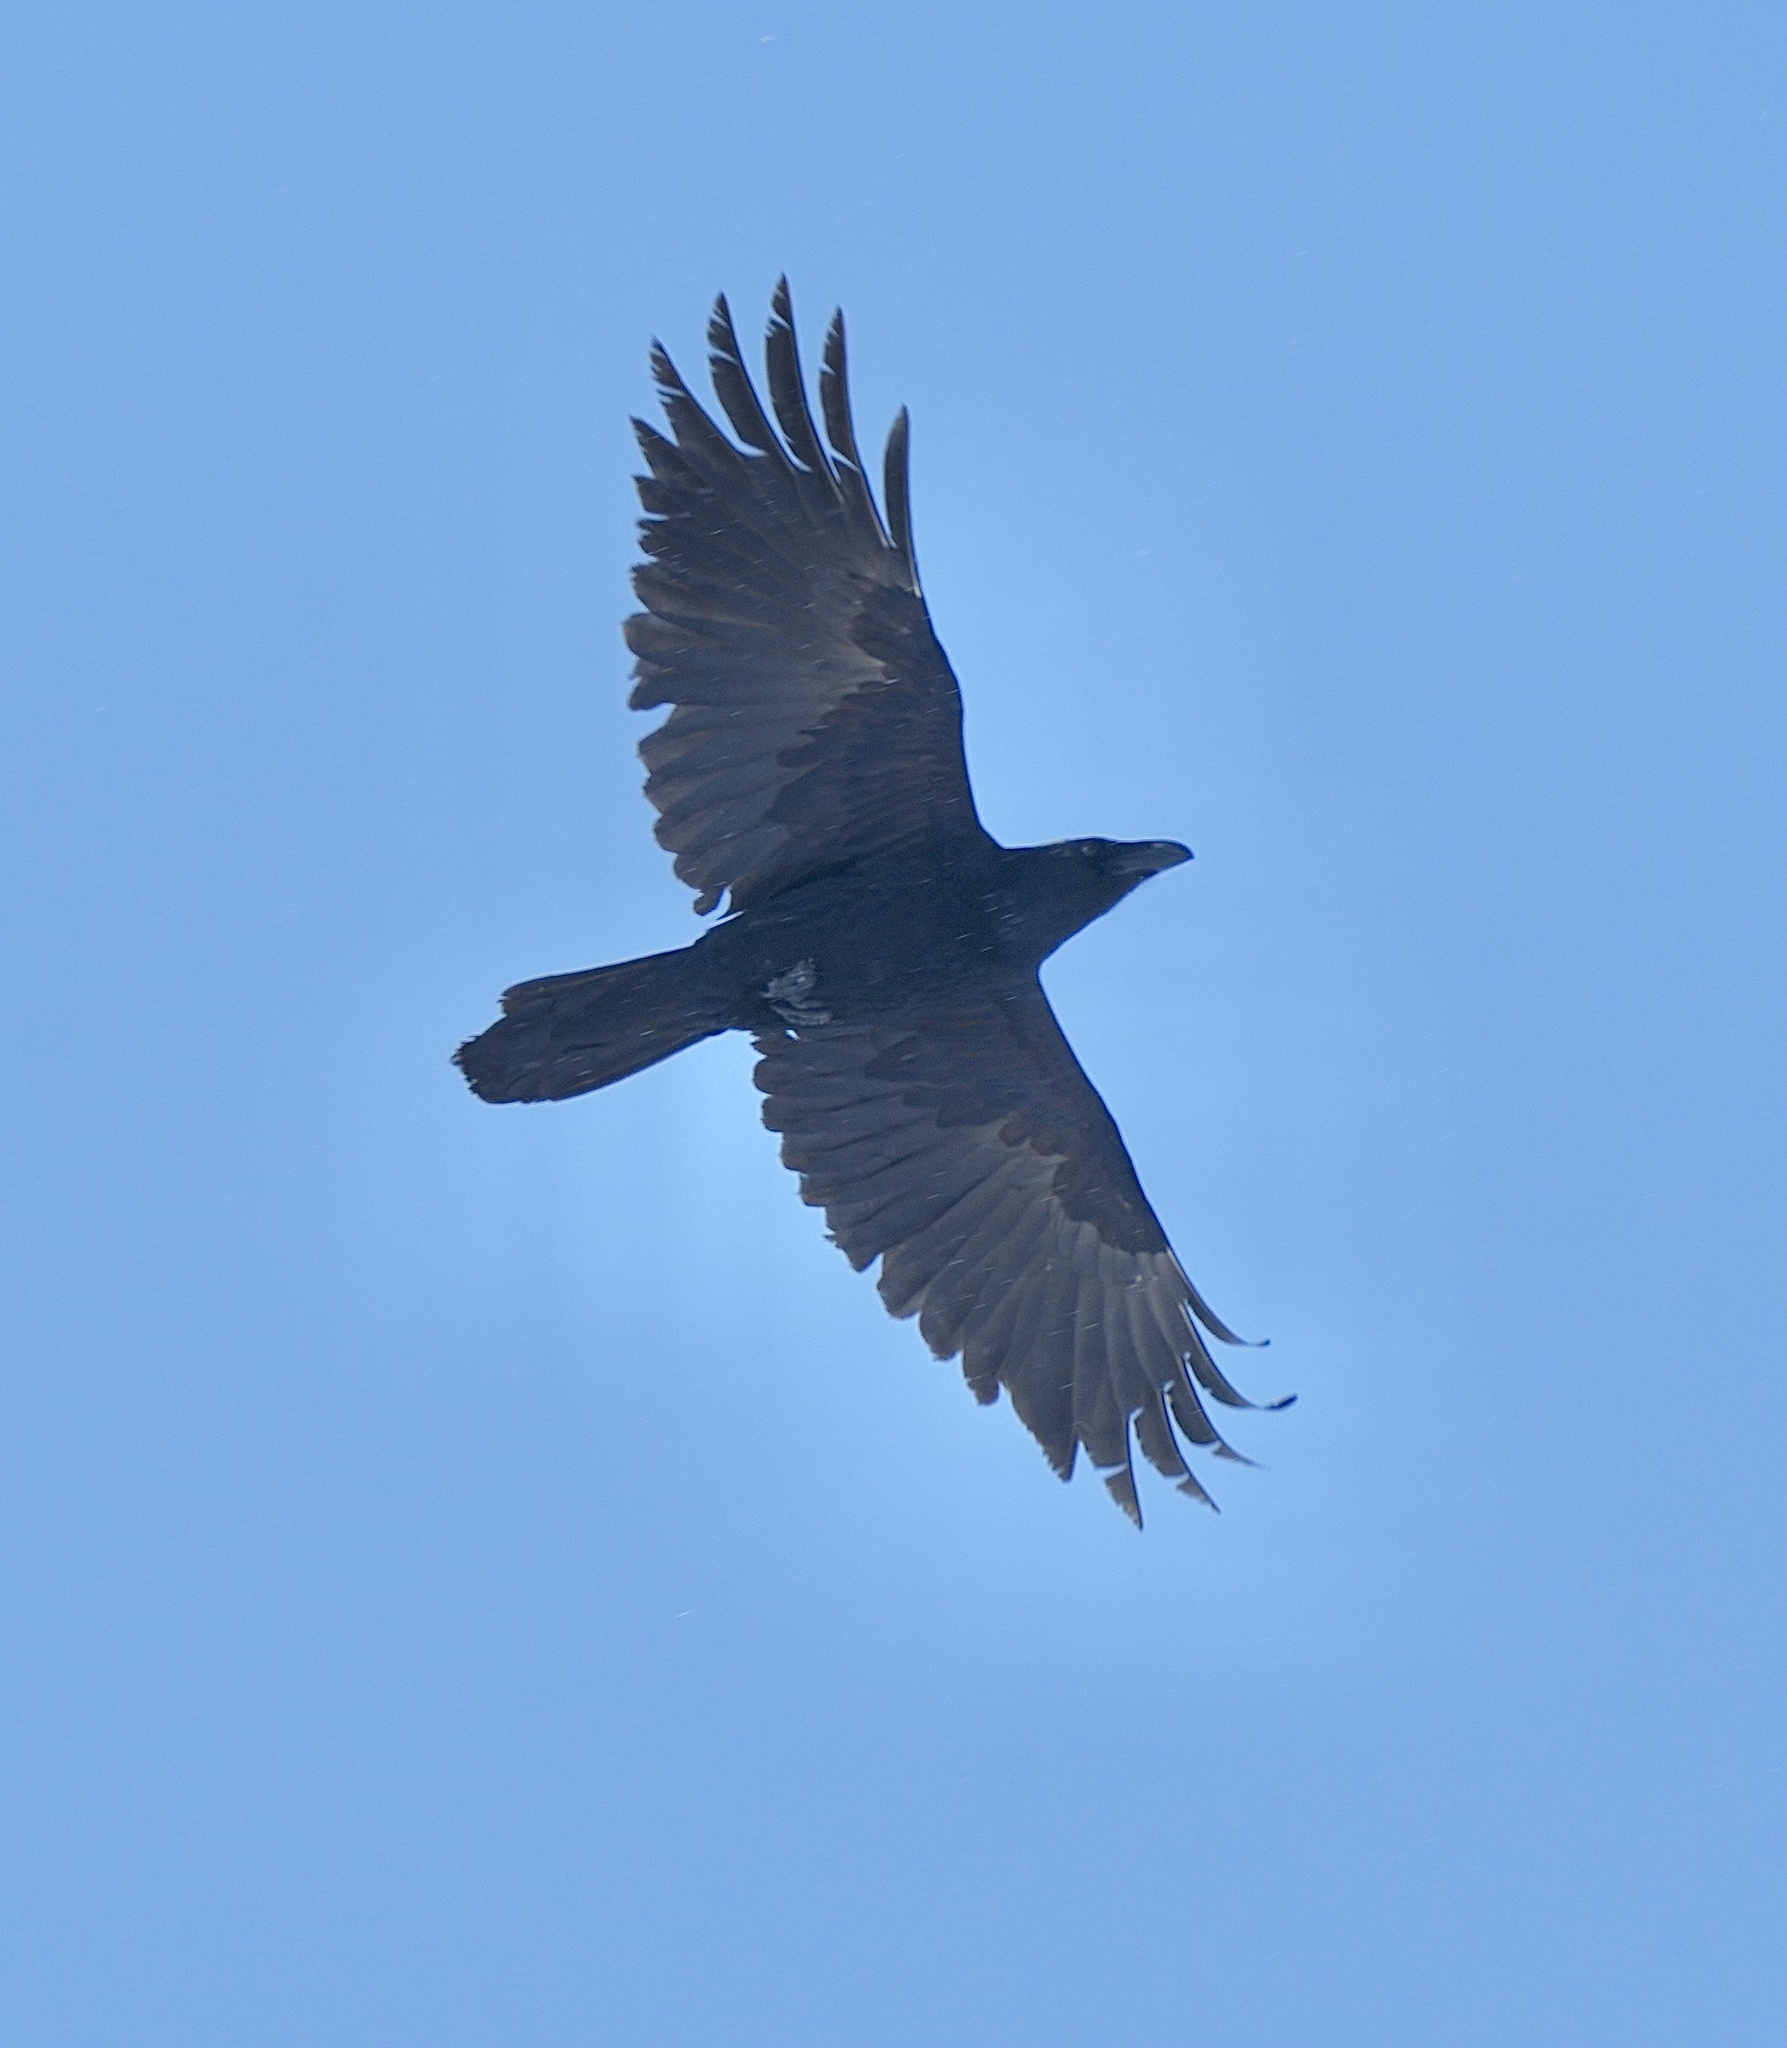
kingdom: Animalia
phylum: Chordata
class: Aves
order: Passeriformes
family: Corvidae
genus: Corvus
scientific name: Corvus corax
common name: Common raven
